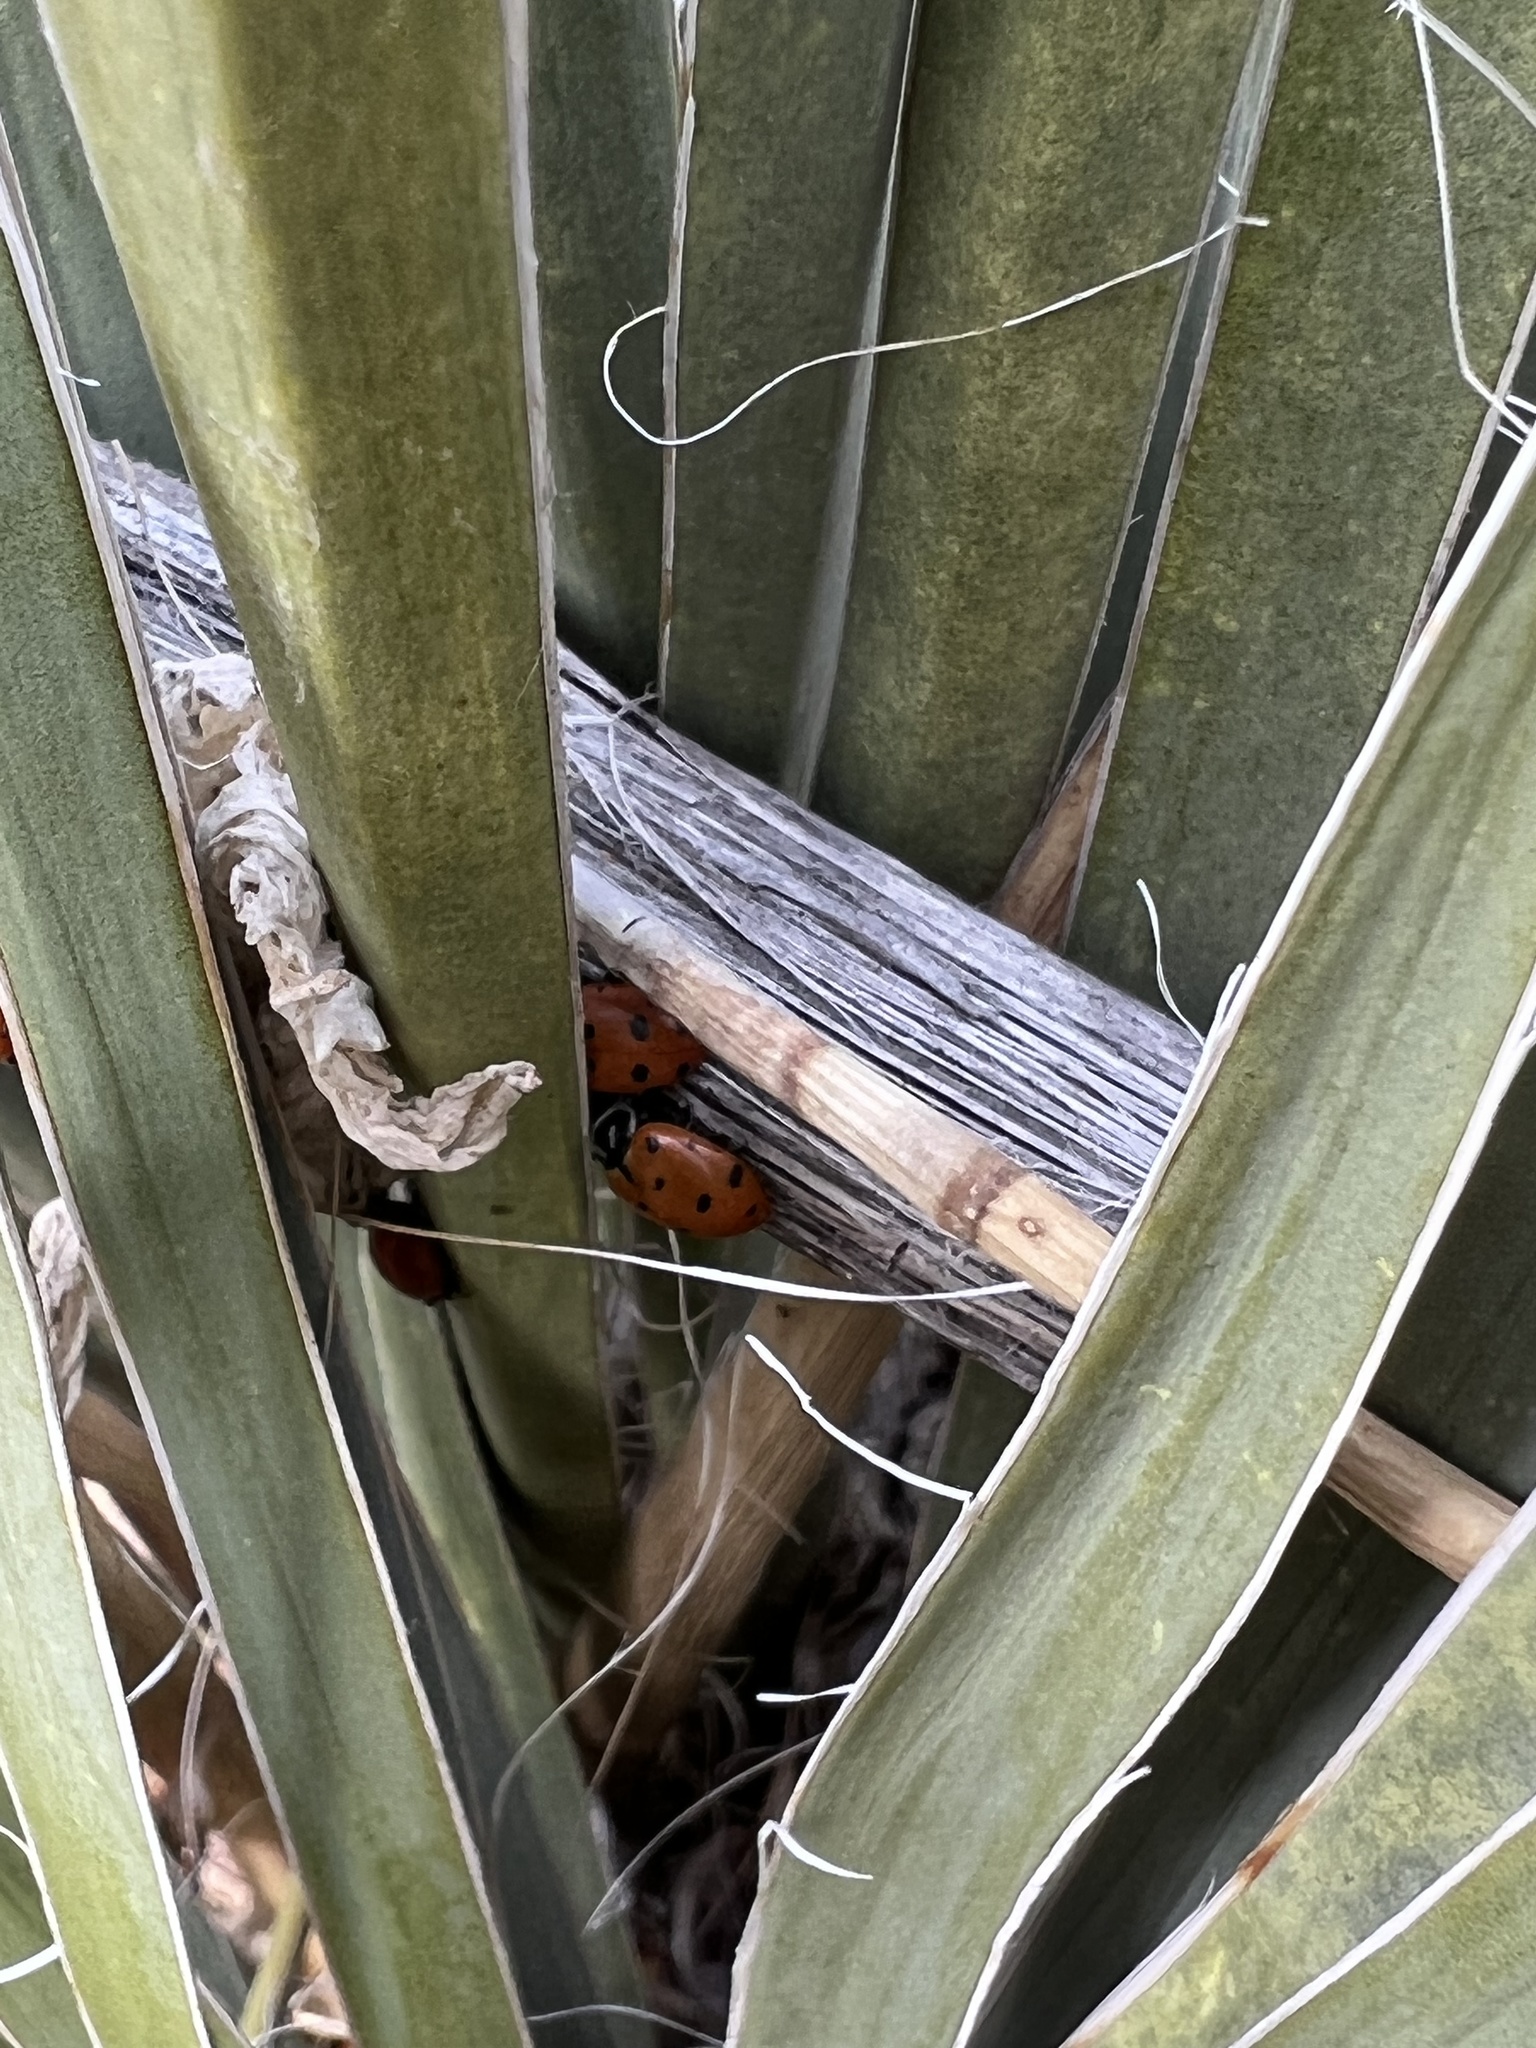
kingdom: Animalia
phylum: Arthropoda
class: Insecta
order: Coleoptera
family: Coccinellidae
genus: Hippodamia
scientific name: Hippodamia convergens
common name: Convergent lady beetle
